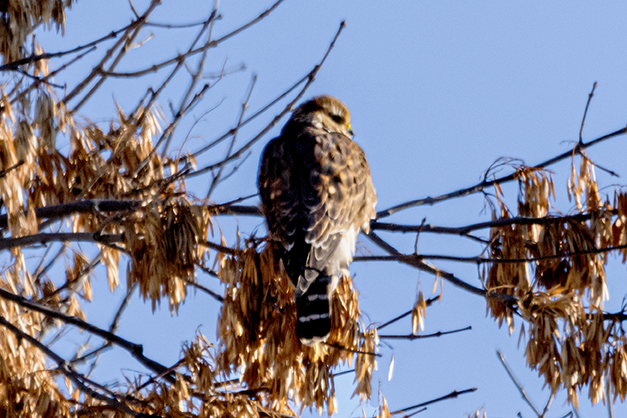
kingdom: Animalia
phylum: Chordata
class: Aves
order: Falconiformes
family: Falconidae
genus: Falco
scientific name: Falco columbarius
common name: Merlin
